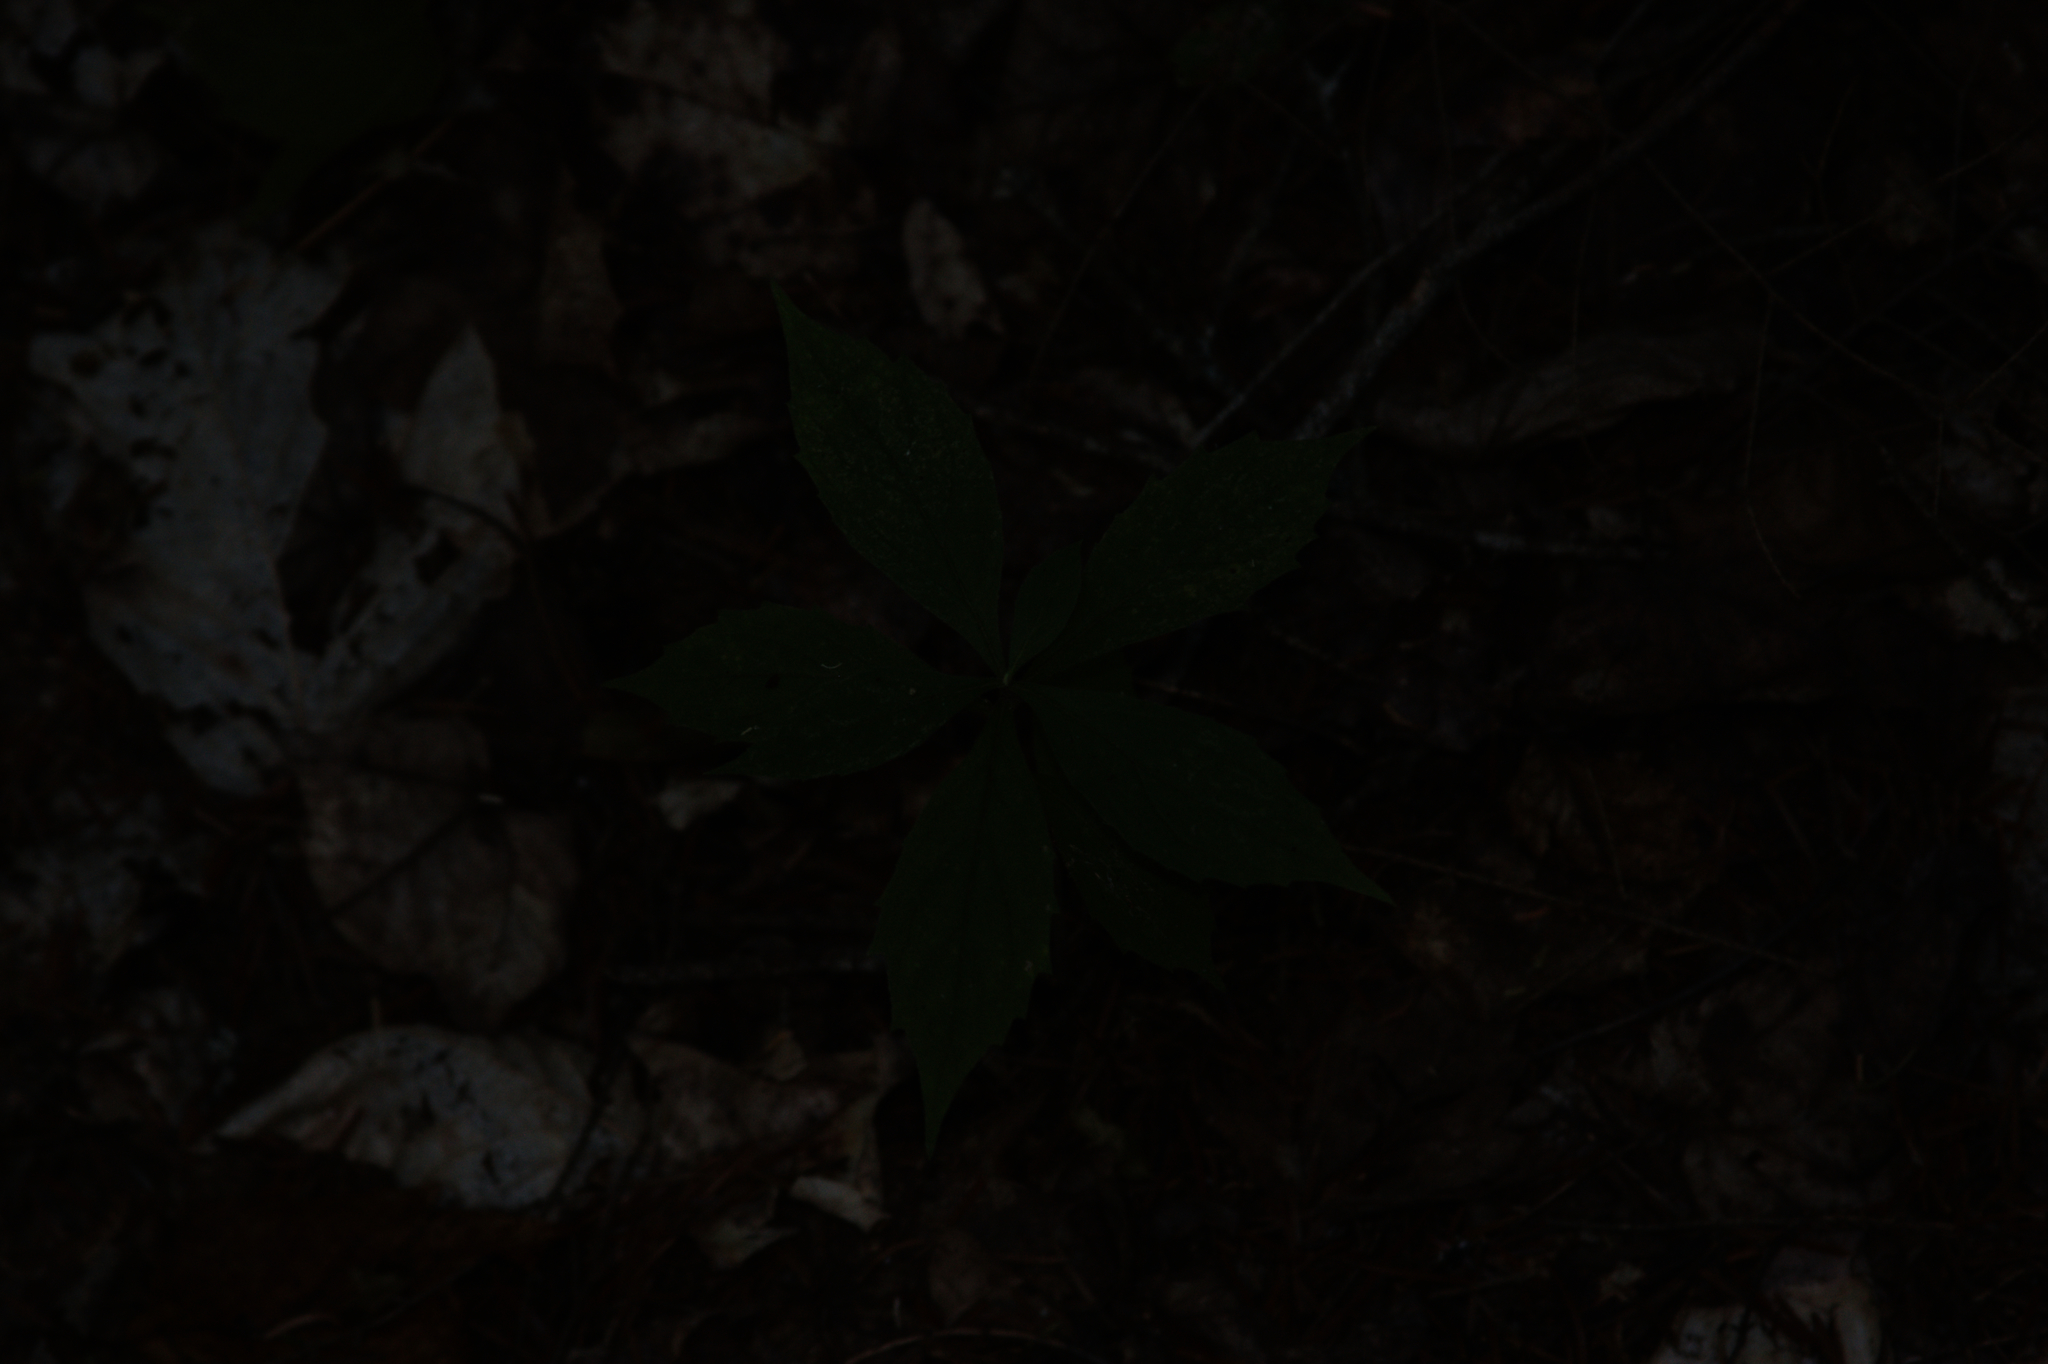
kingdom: Plantae
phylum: Tracheophyta
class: Magnoliopsida
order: Asterales
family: Asteraceae
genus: Oclemena
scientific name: Oclemena acuminata
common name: Mountain aster
